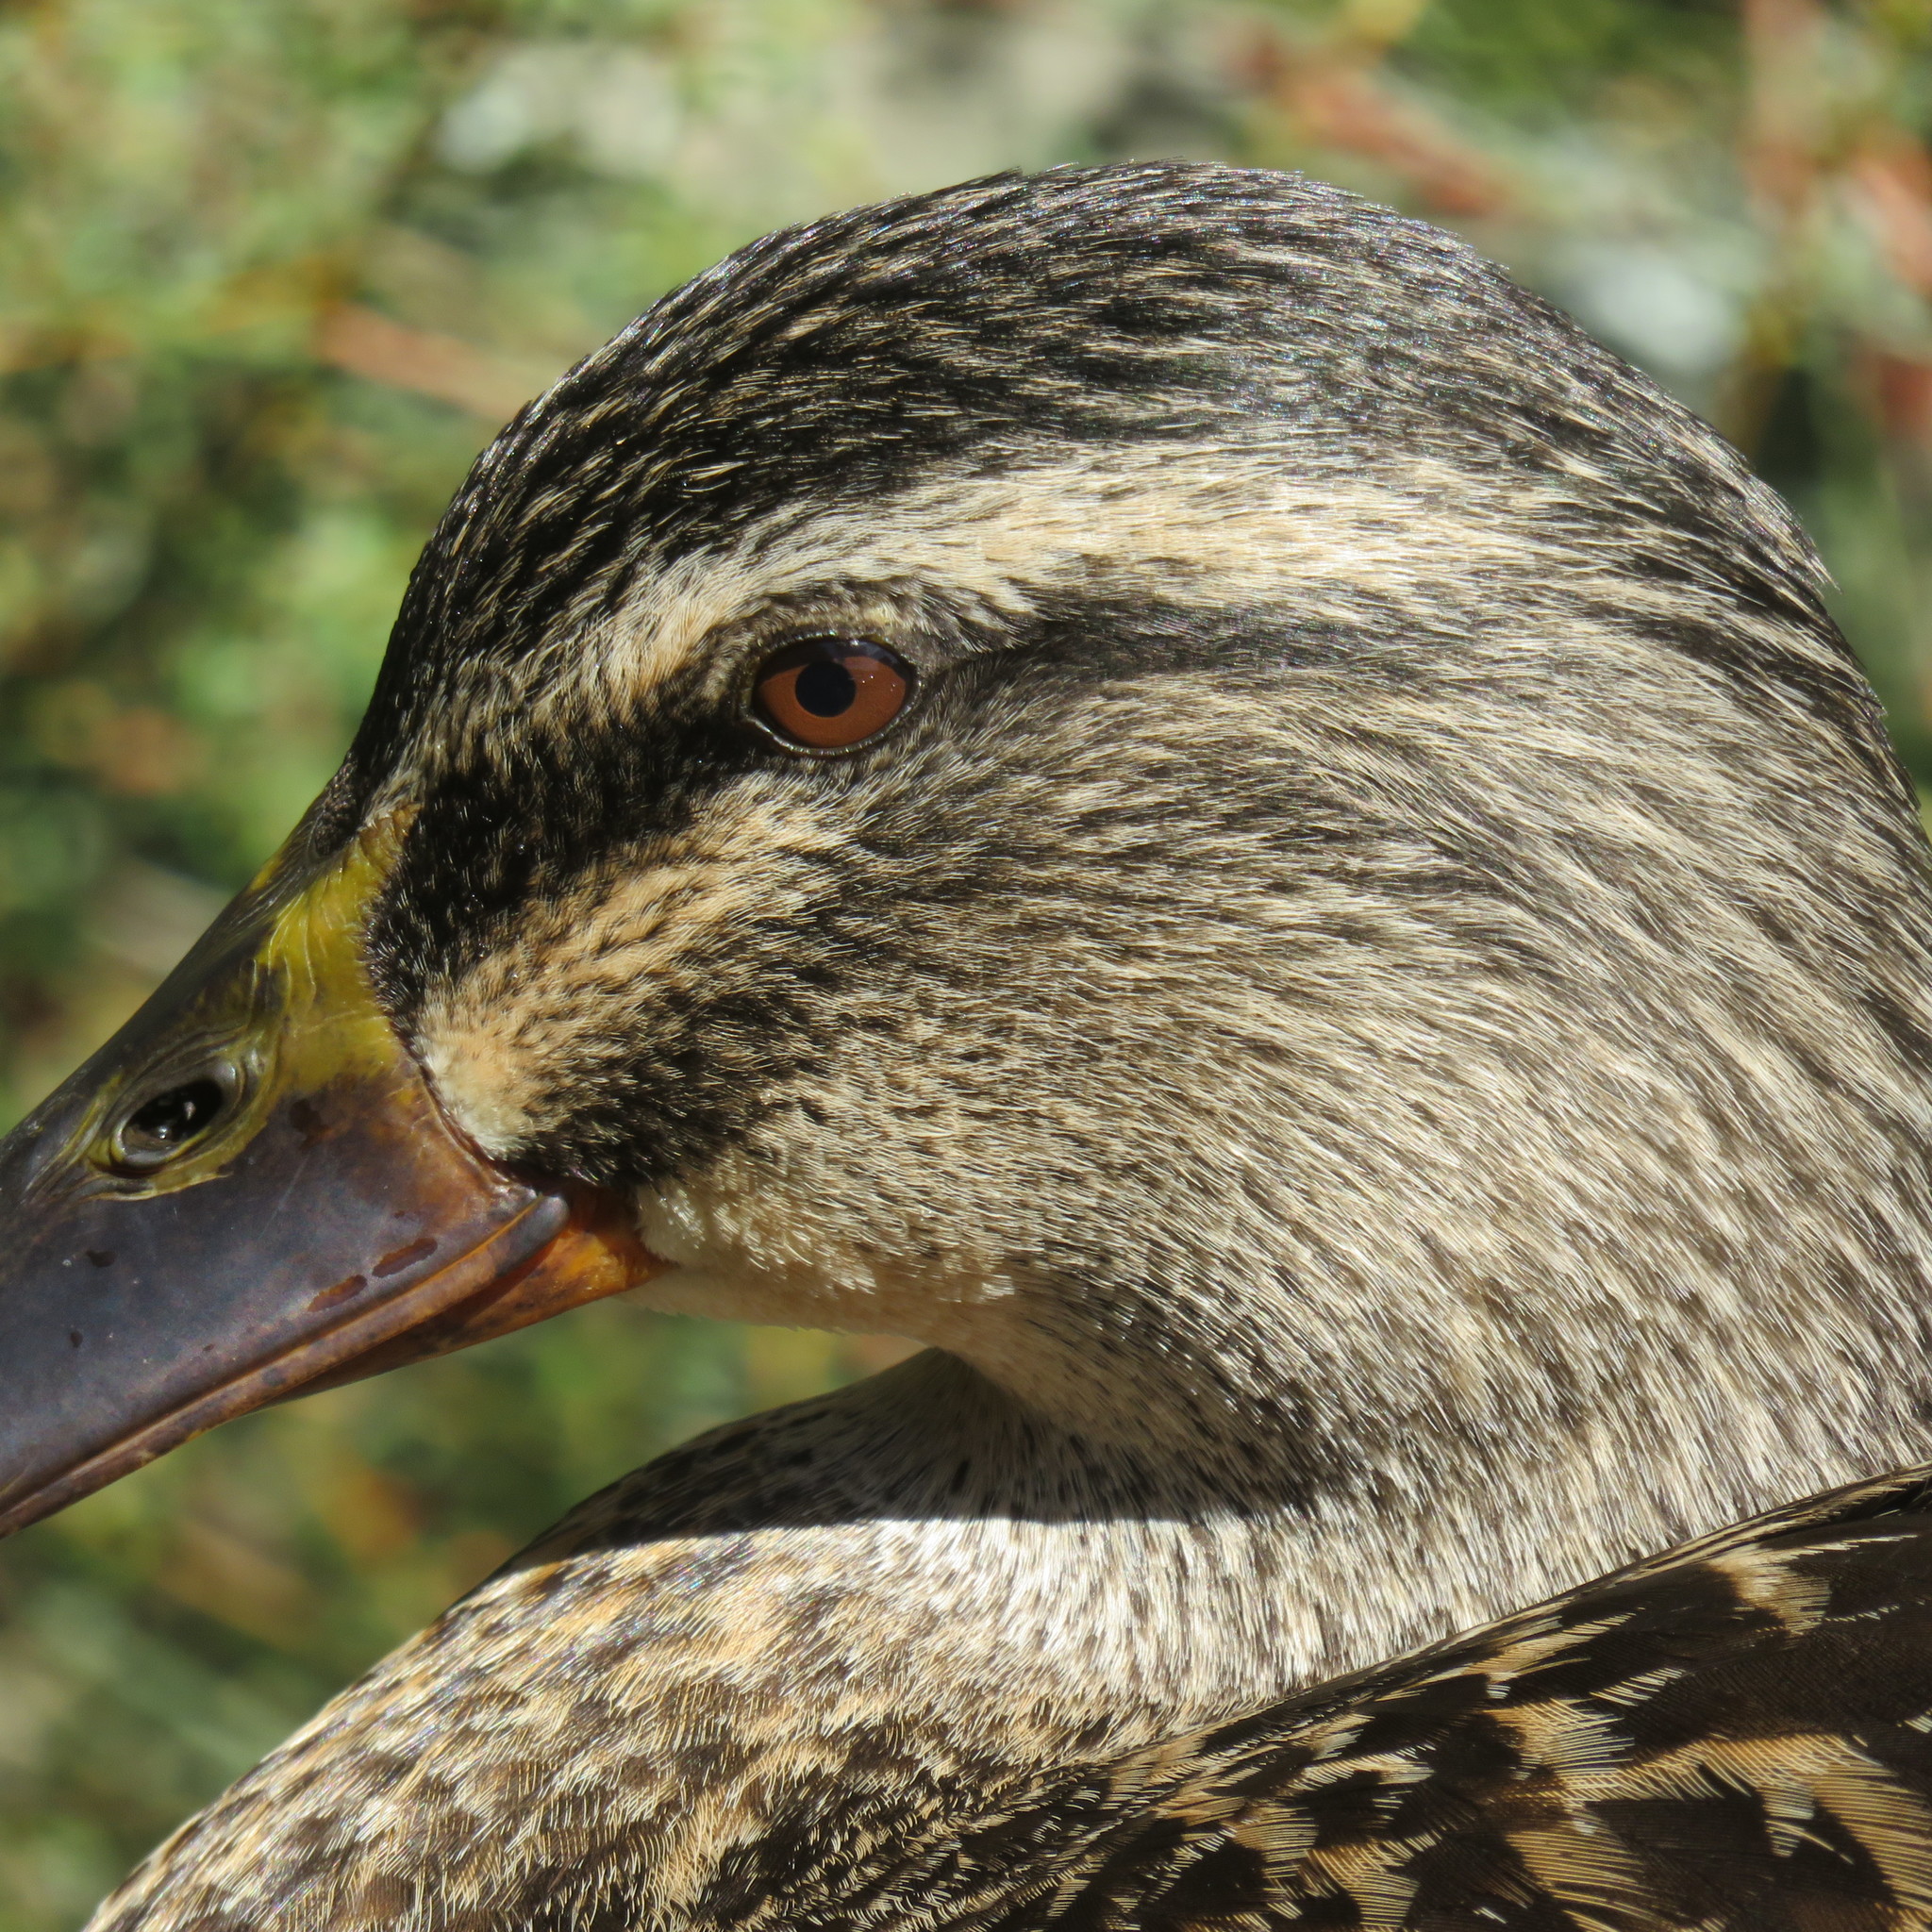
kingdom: Animalia
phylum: Chordata
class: Aves
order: Anseriformes
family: Anatidae
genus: Anas
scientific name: Anas
